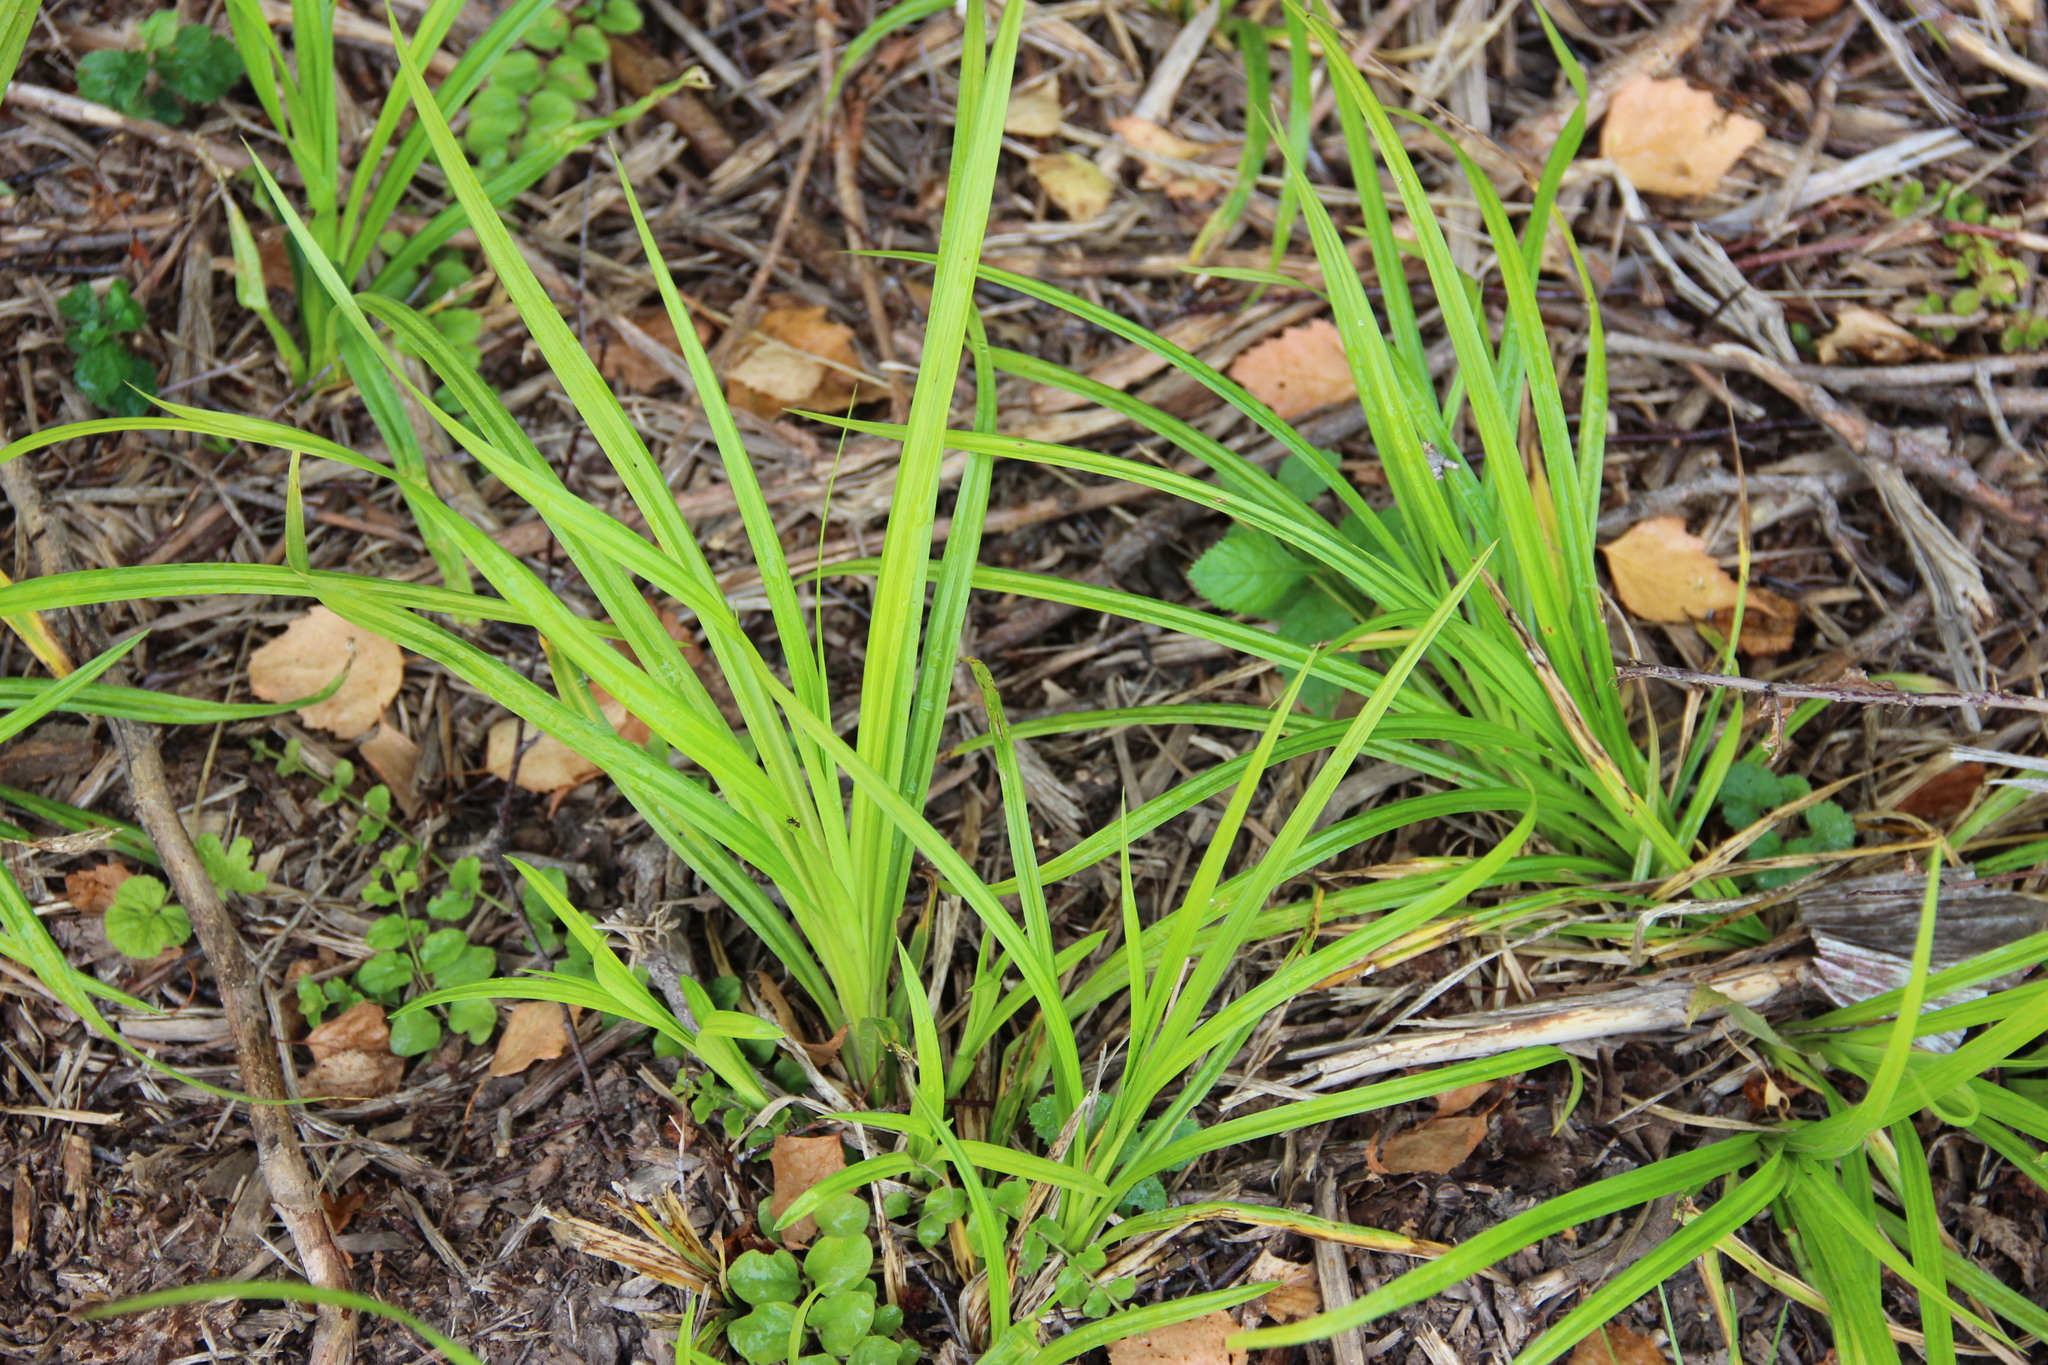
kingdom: Plantae
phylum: Tracheophyta
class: Liliopsida
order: Poales
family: Cyperaceae
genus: Scirpus
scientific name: Scirpus sylvaticus
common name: Wood club-rush
